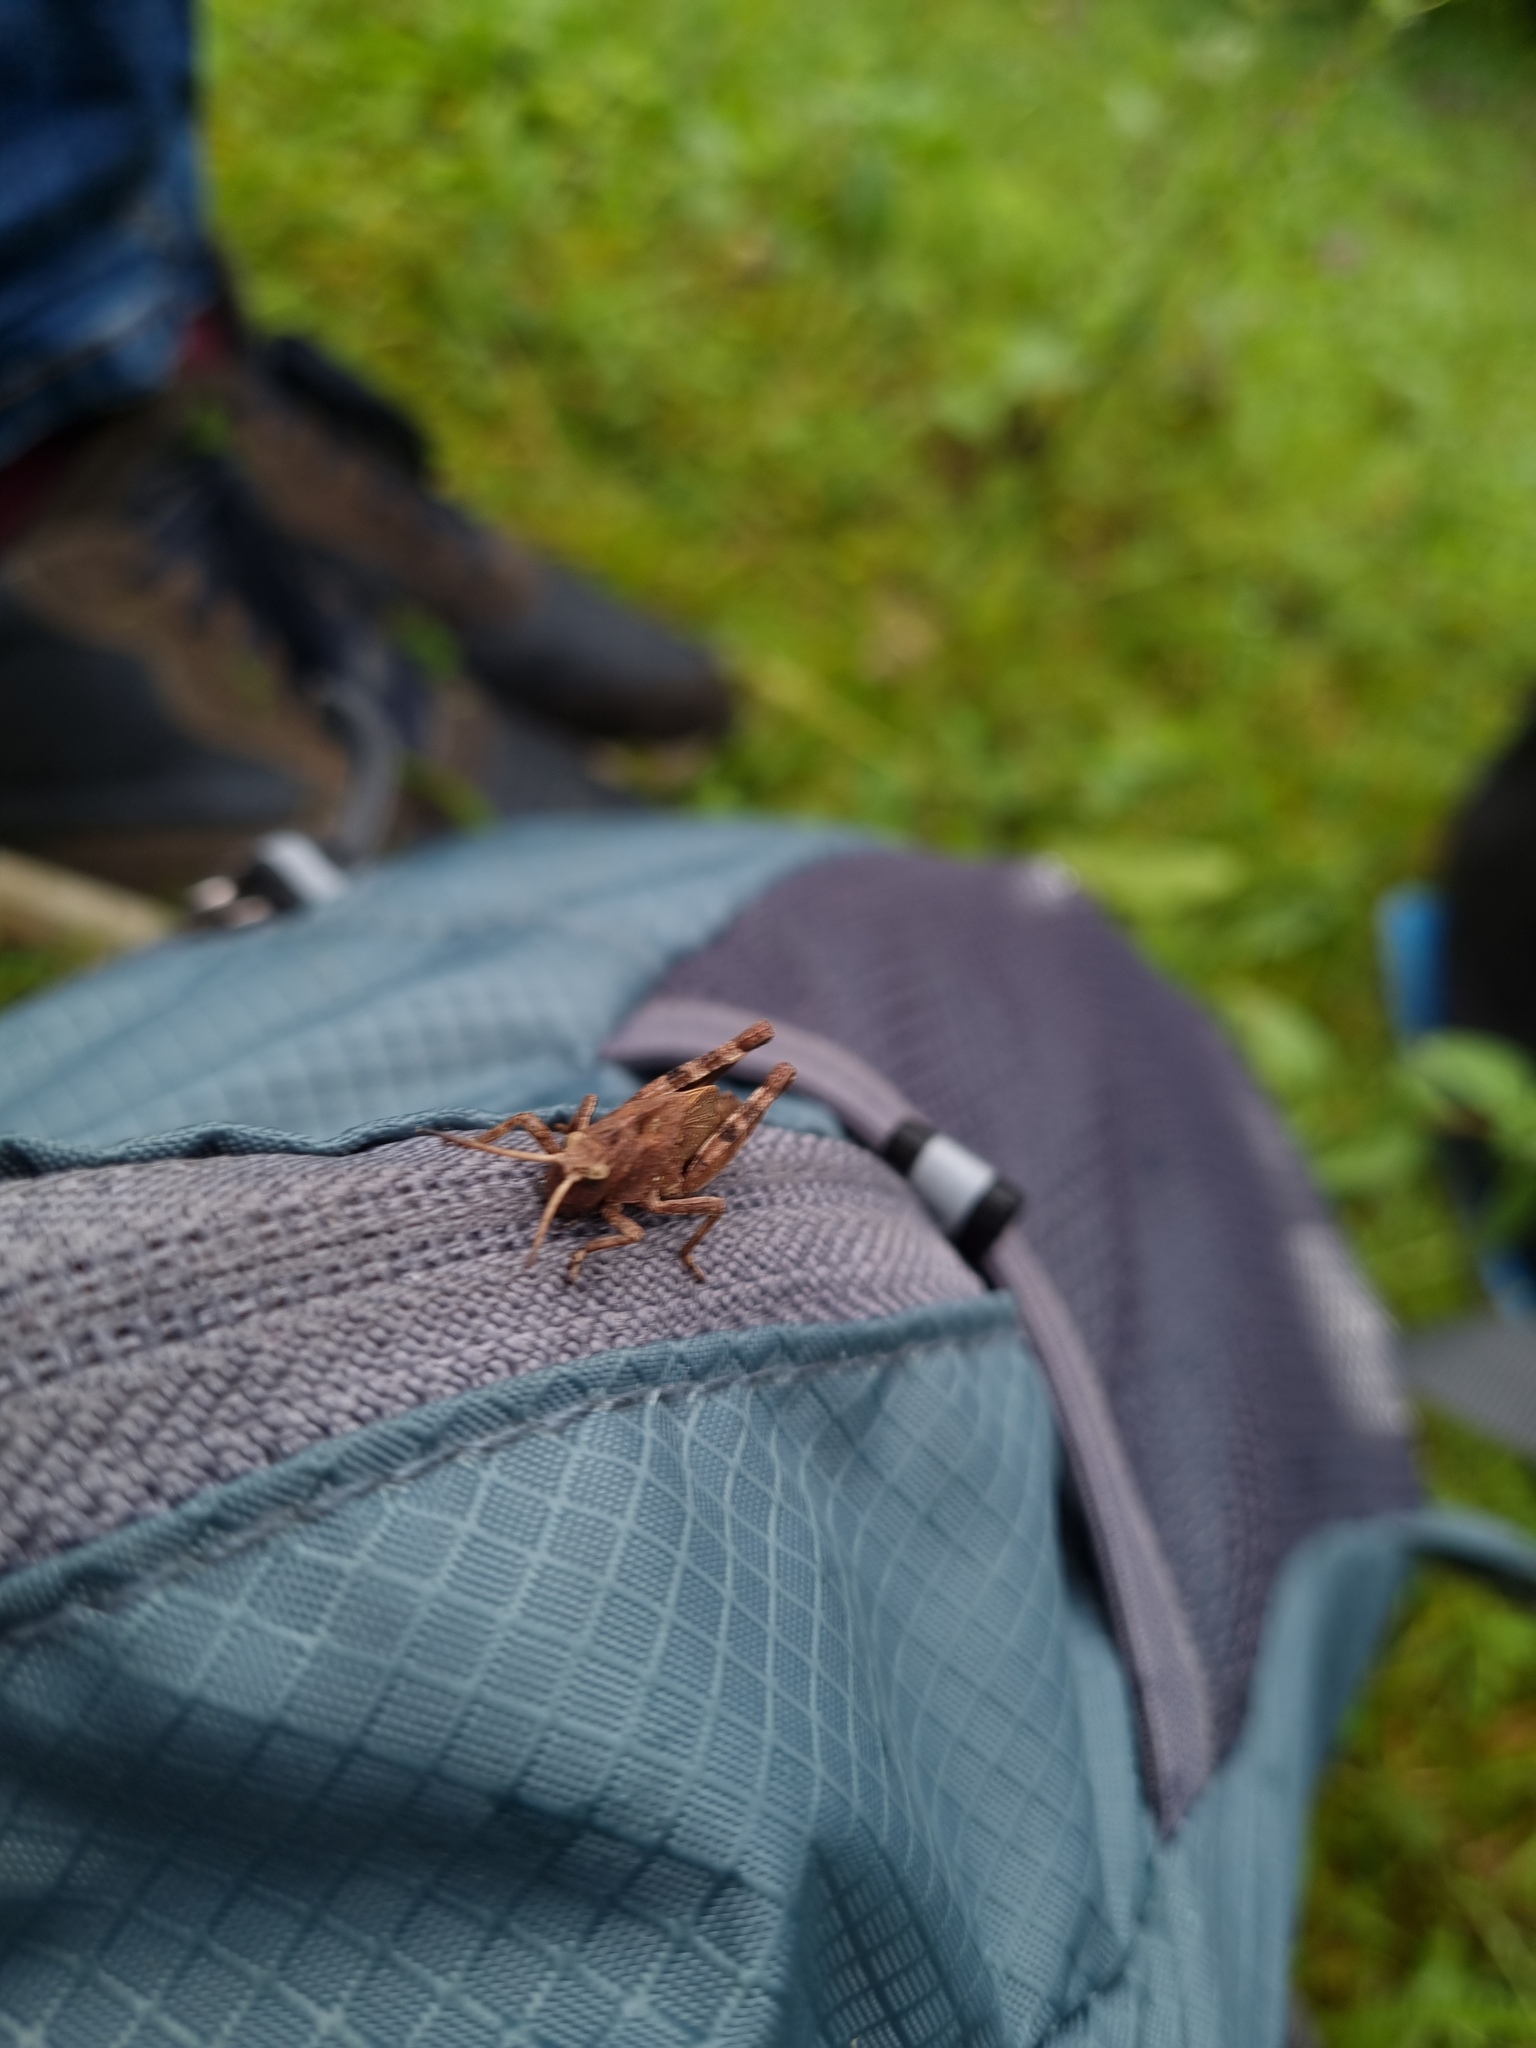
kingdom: Animalia
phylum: Arthropoda
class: Insecta
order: Orthoptera
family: Acrididae
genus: Psophus
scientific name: Psophus stridulus
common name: Rattle grasshopper
